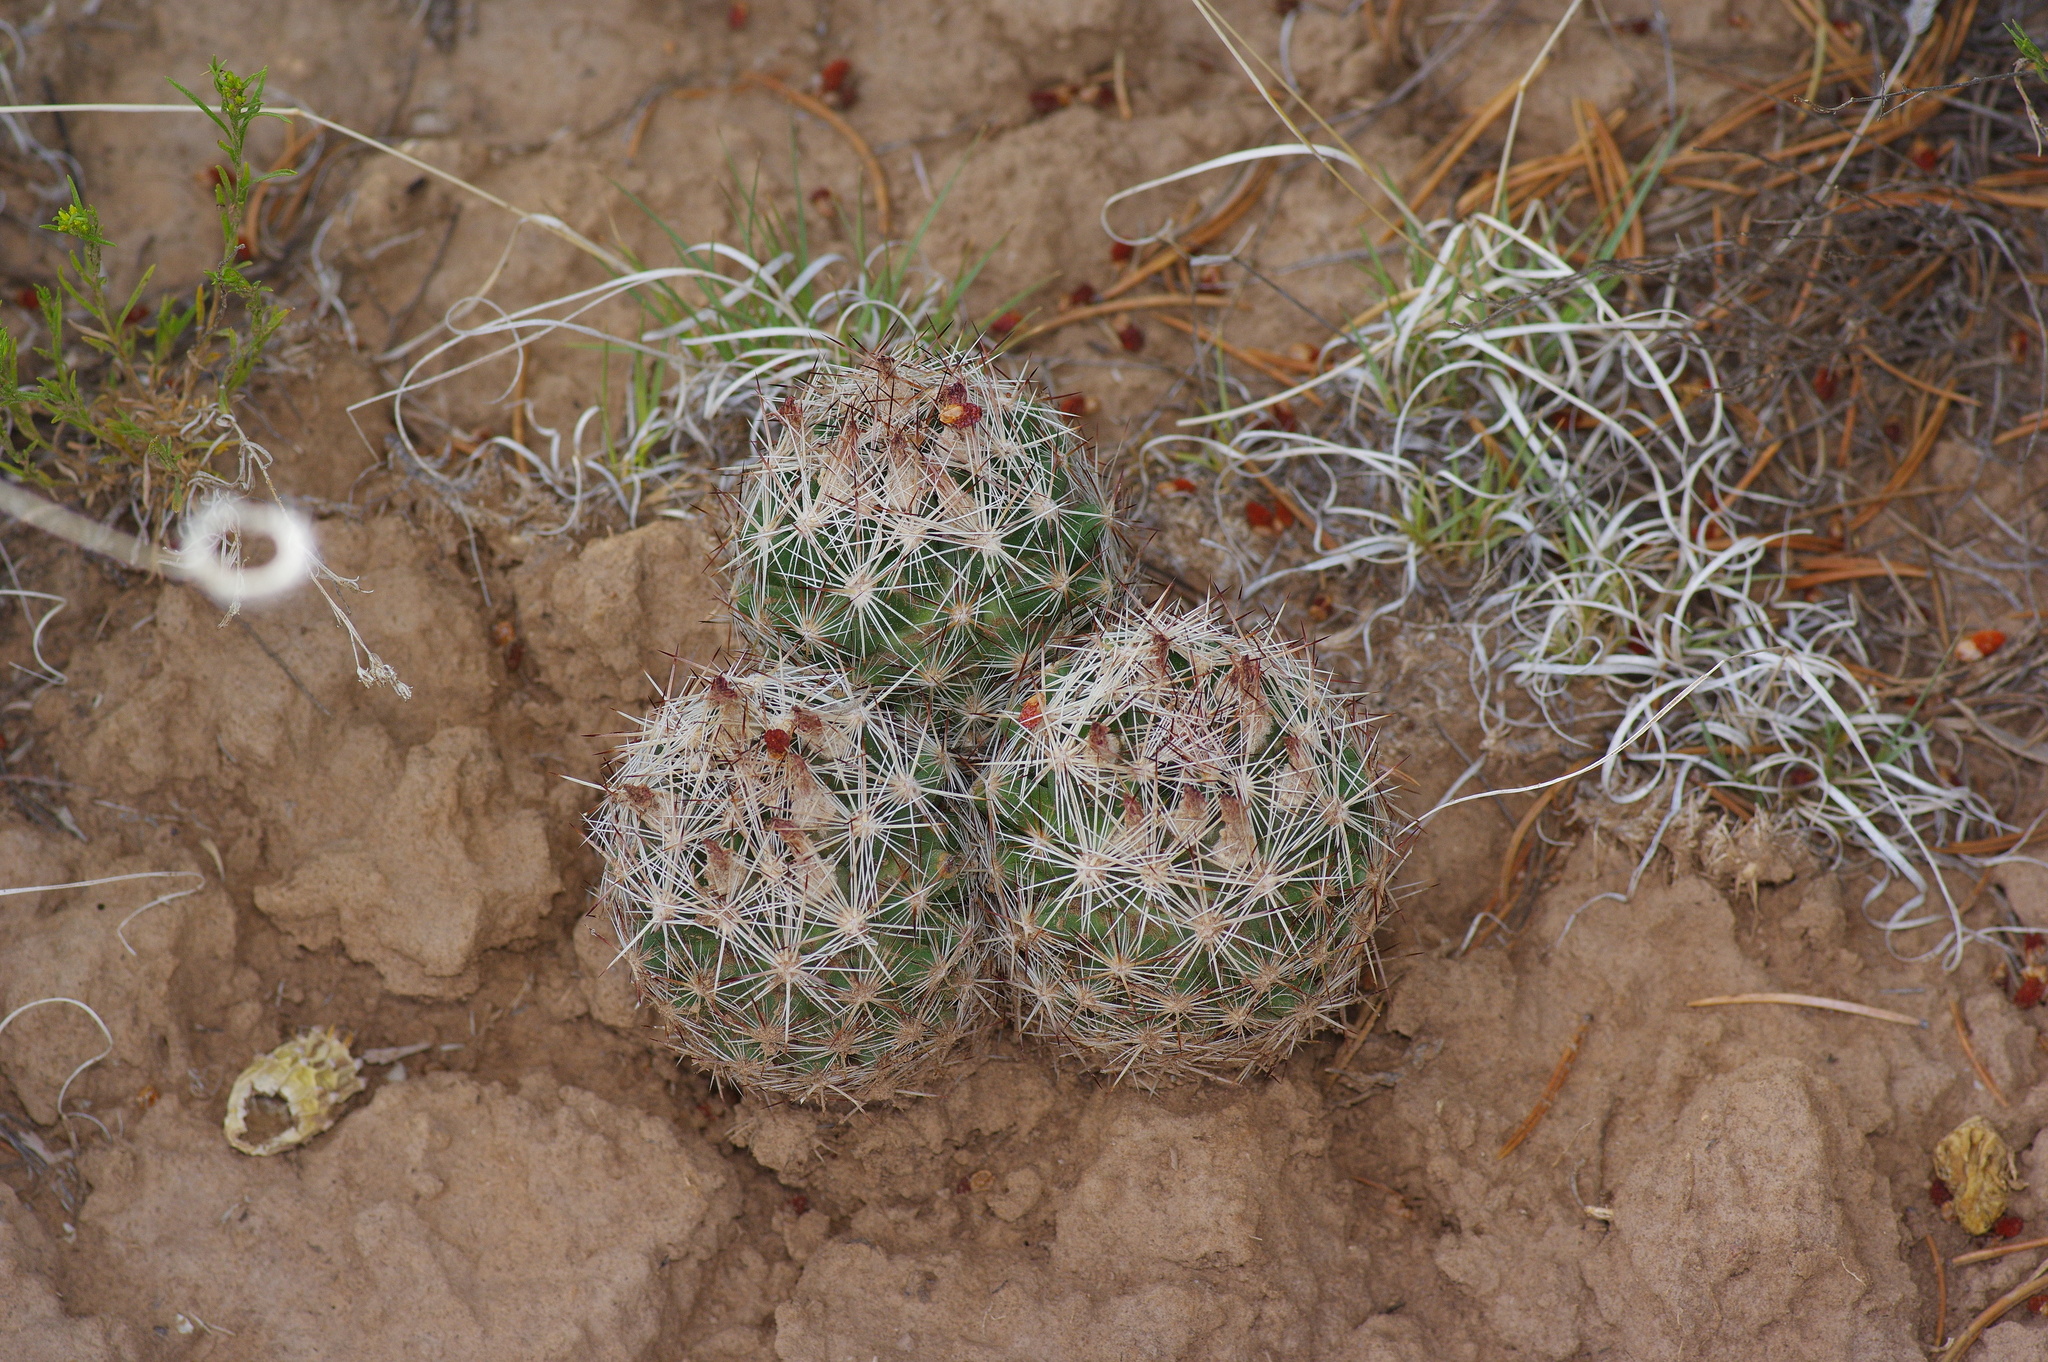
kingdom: Plantae
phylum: Tracheophyta
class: Magnoliopsida
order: Caryophyllales
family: Cactaceae
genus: Pelecyphora
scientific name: Pelecyphora vivipara
